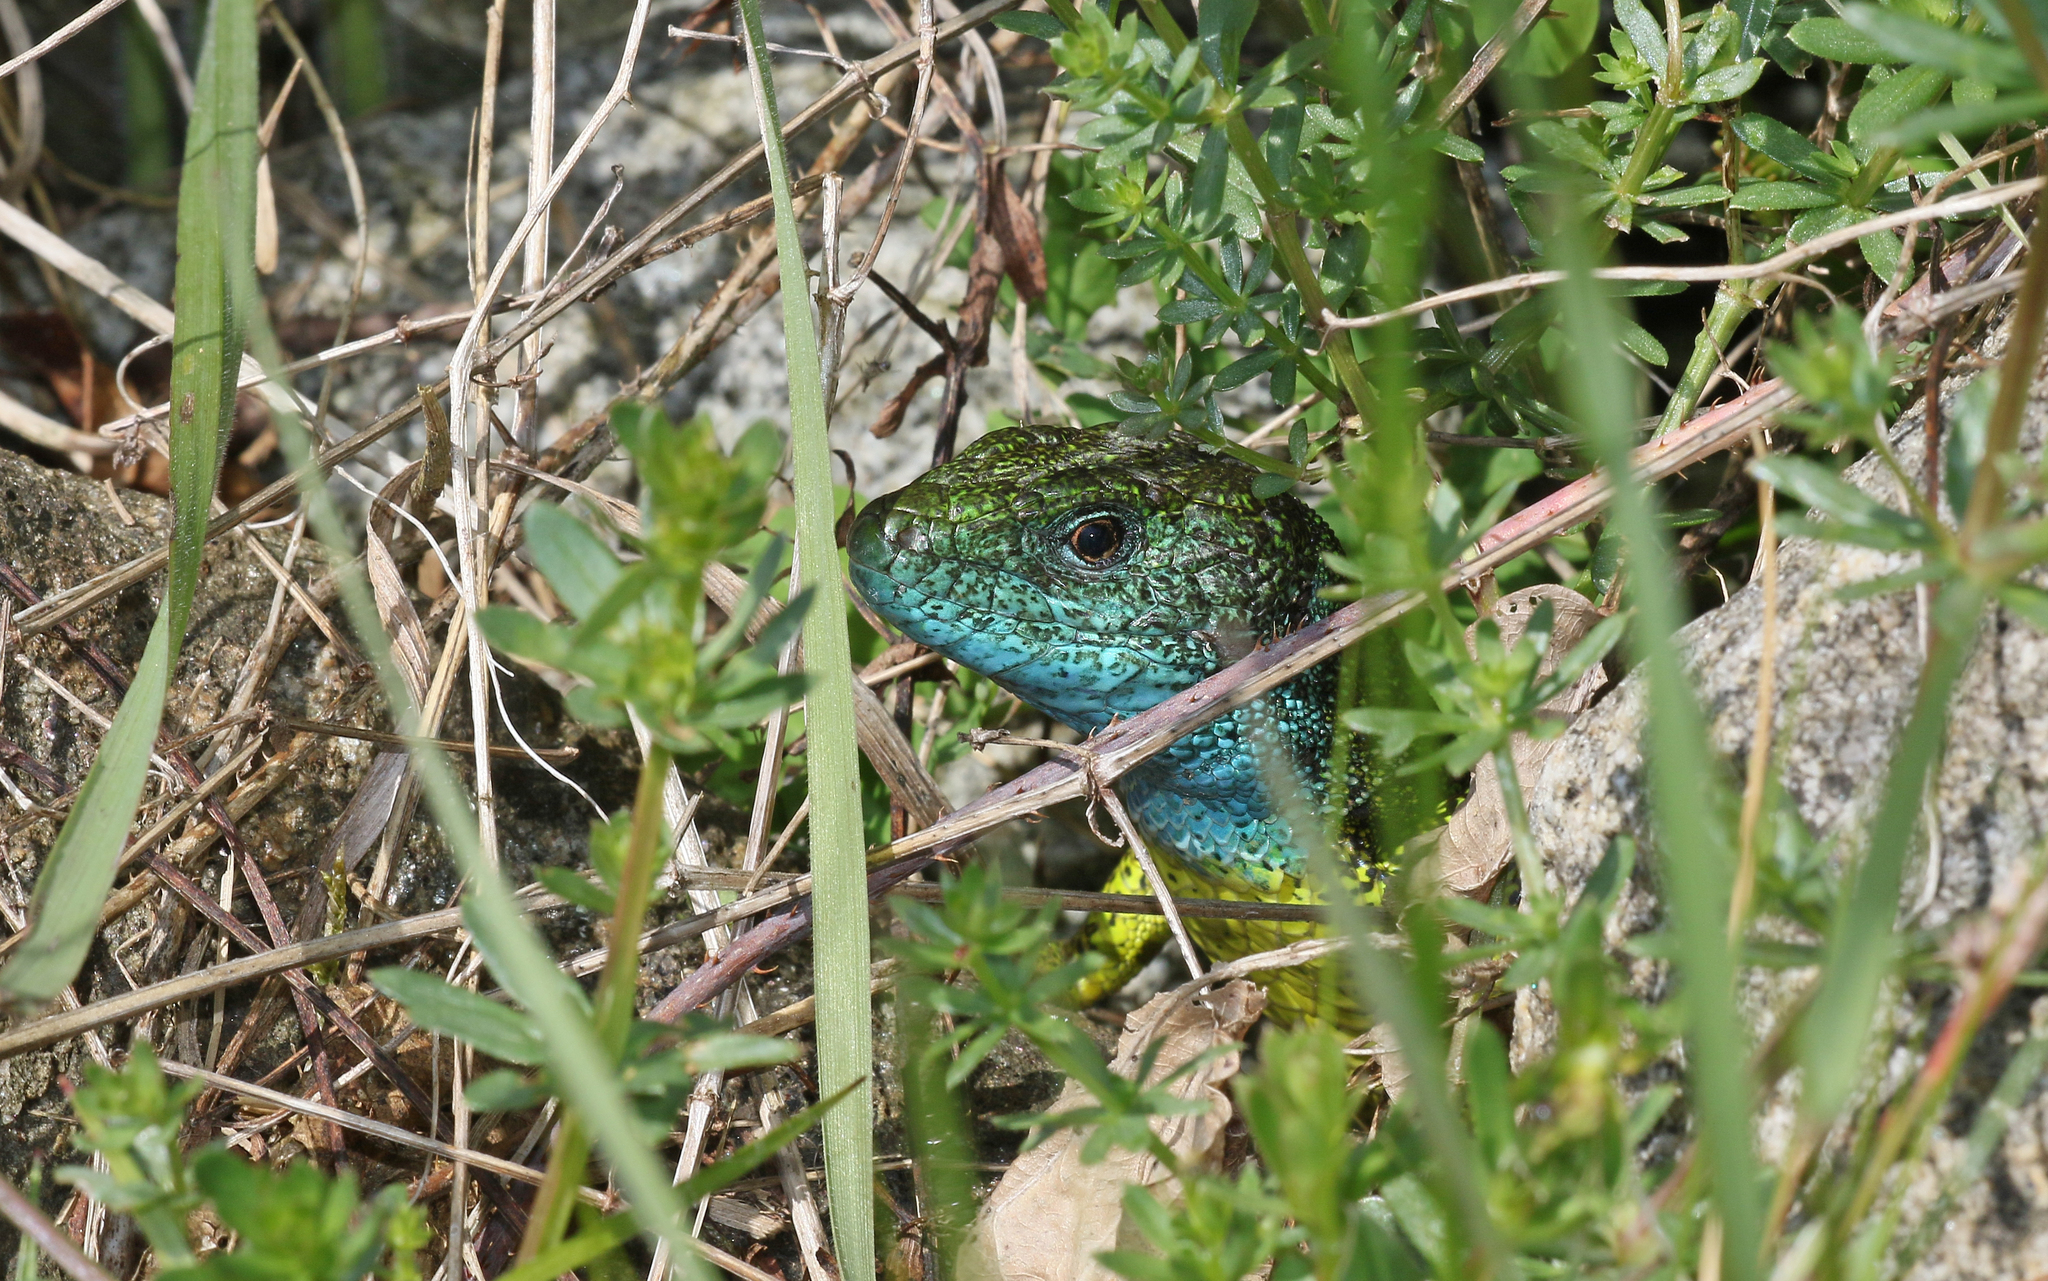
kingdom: Animalia
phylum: Chordata
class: Squamata
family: Lacertidae
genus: Lacerta
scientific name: Lacerta viridis
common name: European green lizard
